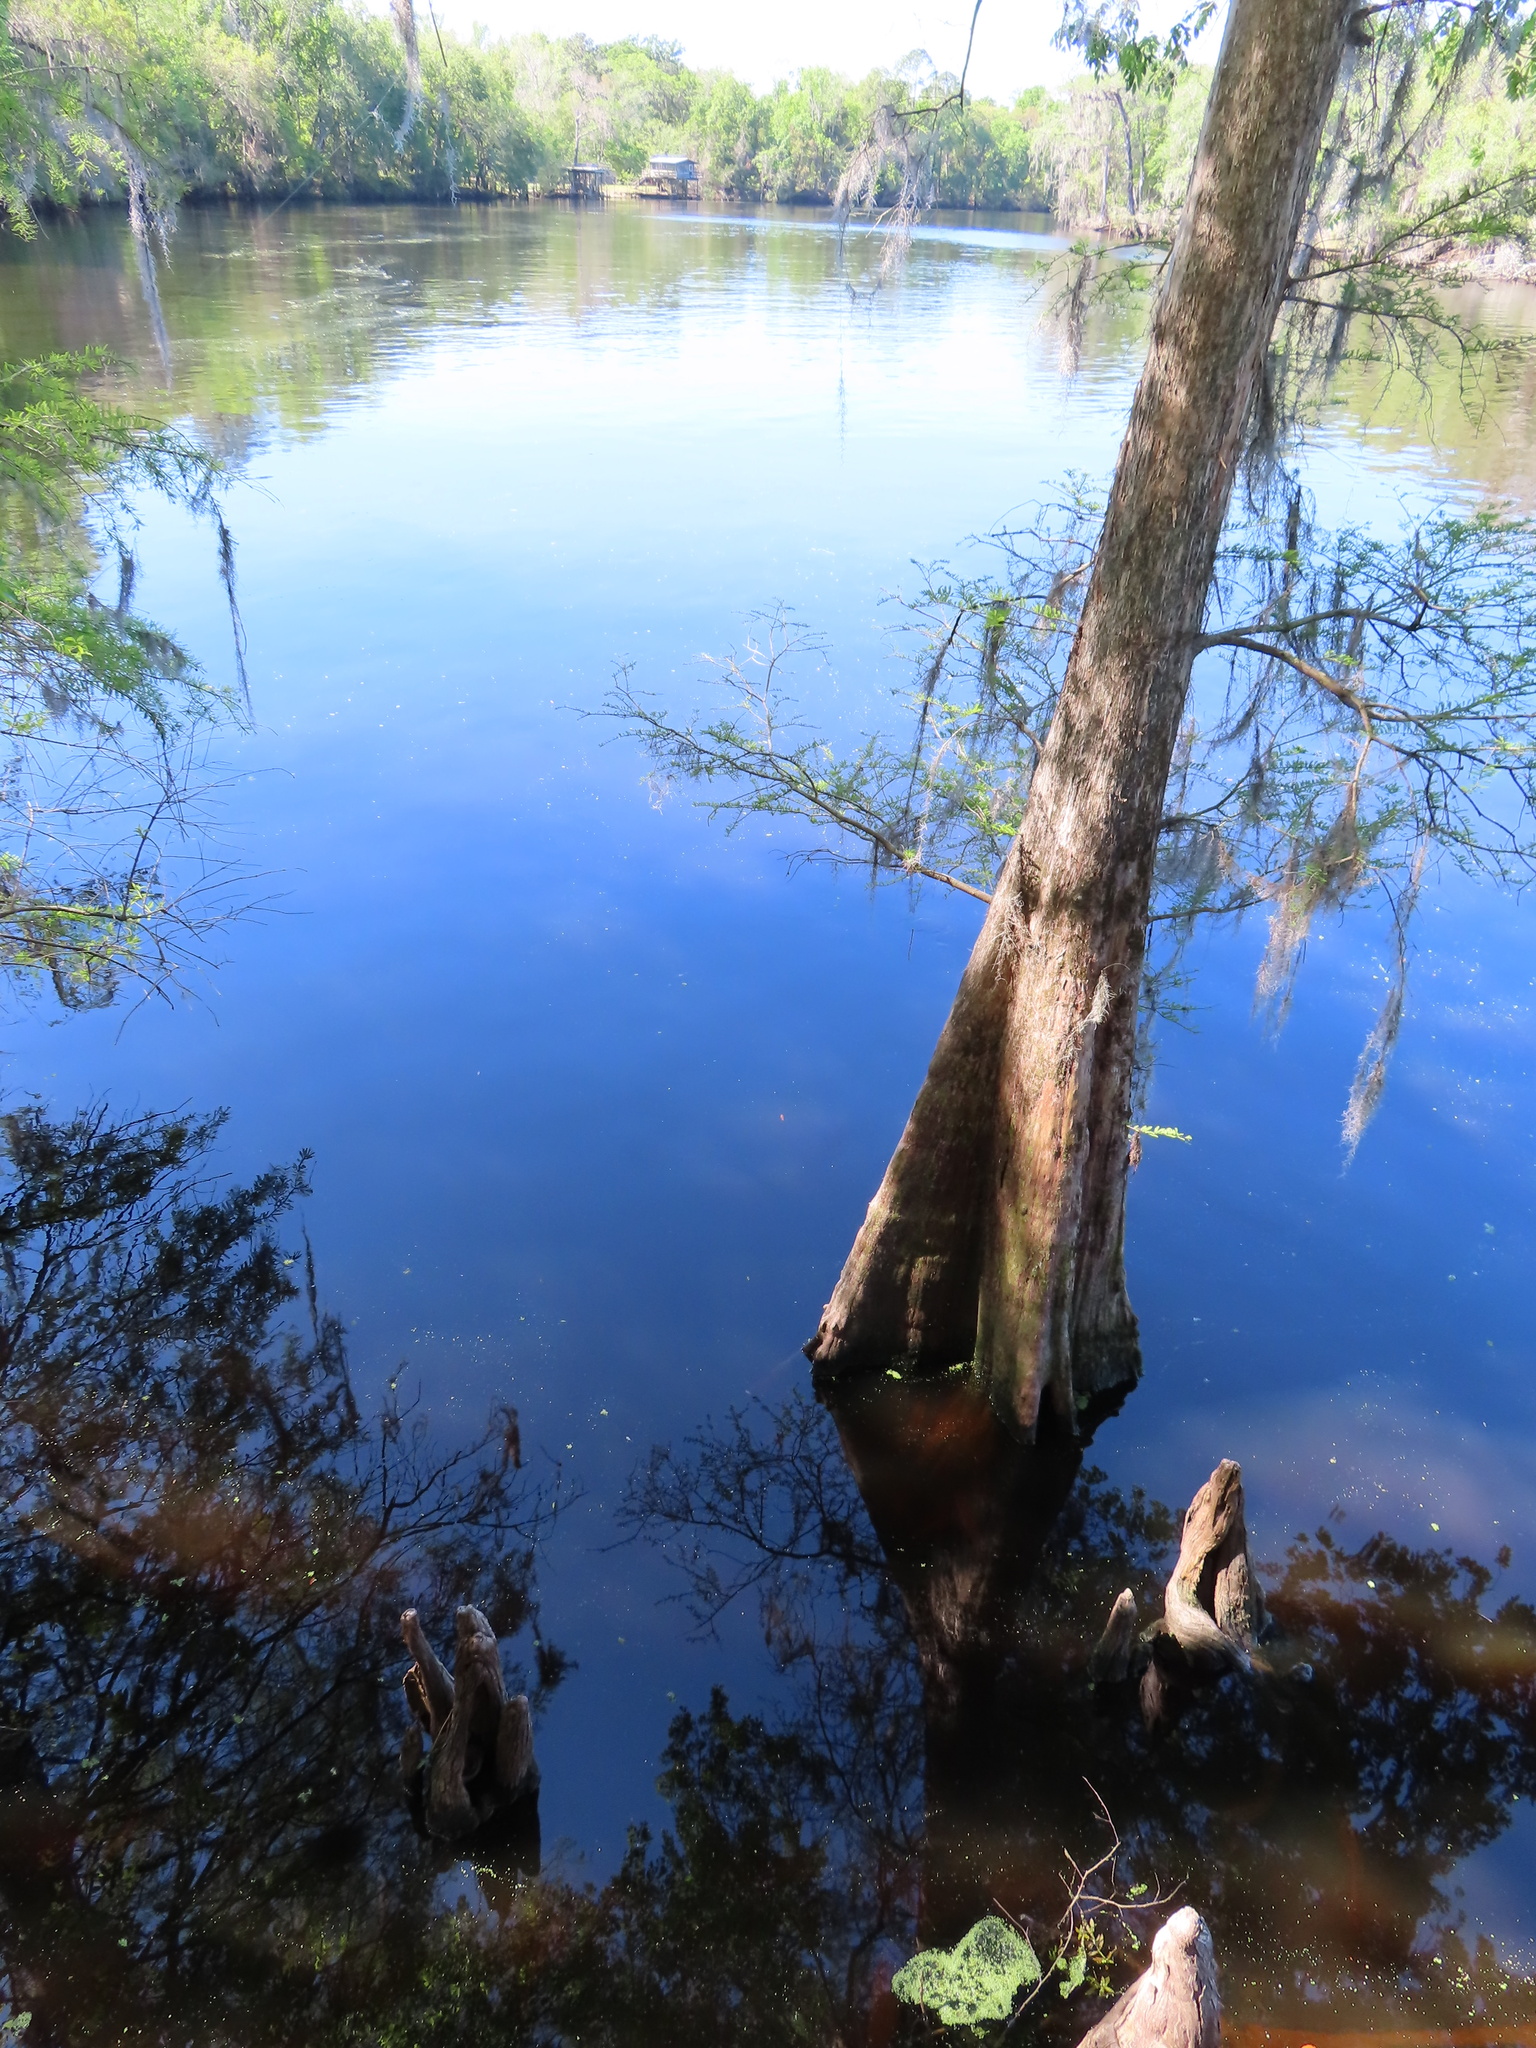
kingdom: Plantae
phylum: Tracheophyta
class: Pinopsida
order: Pinales
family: Cupressaceae
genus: Taxodium
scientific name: Taxodium distichum
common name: Bald cypress
